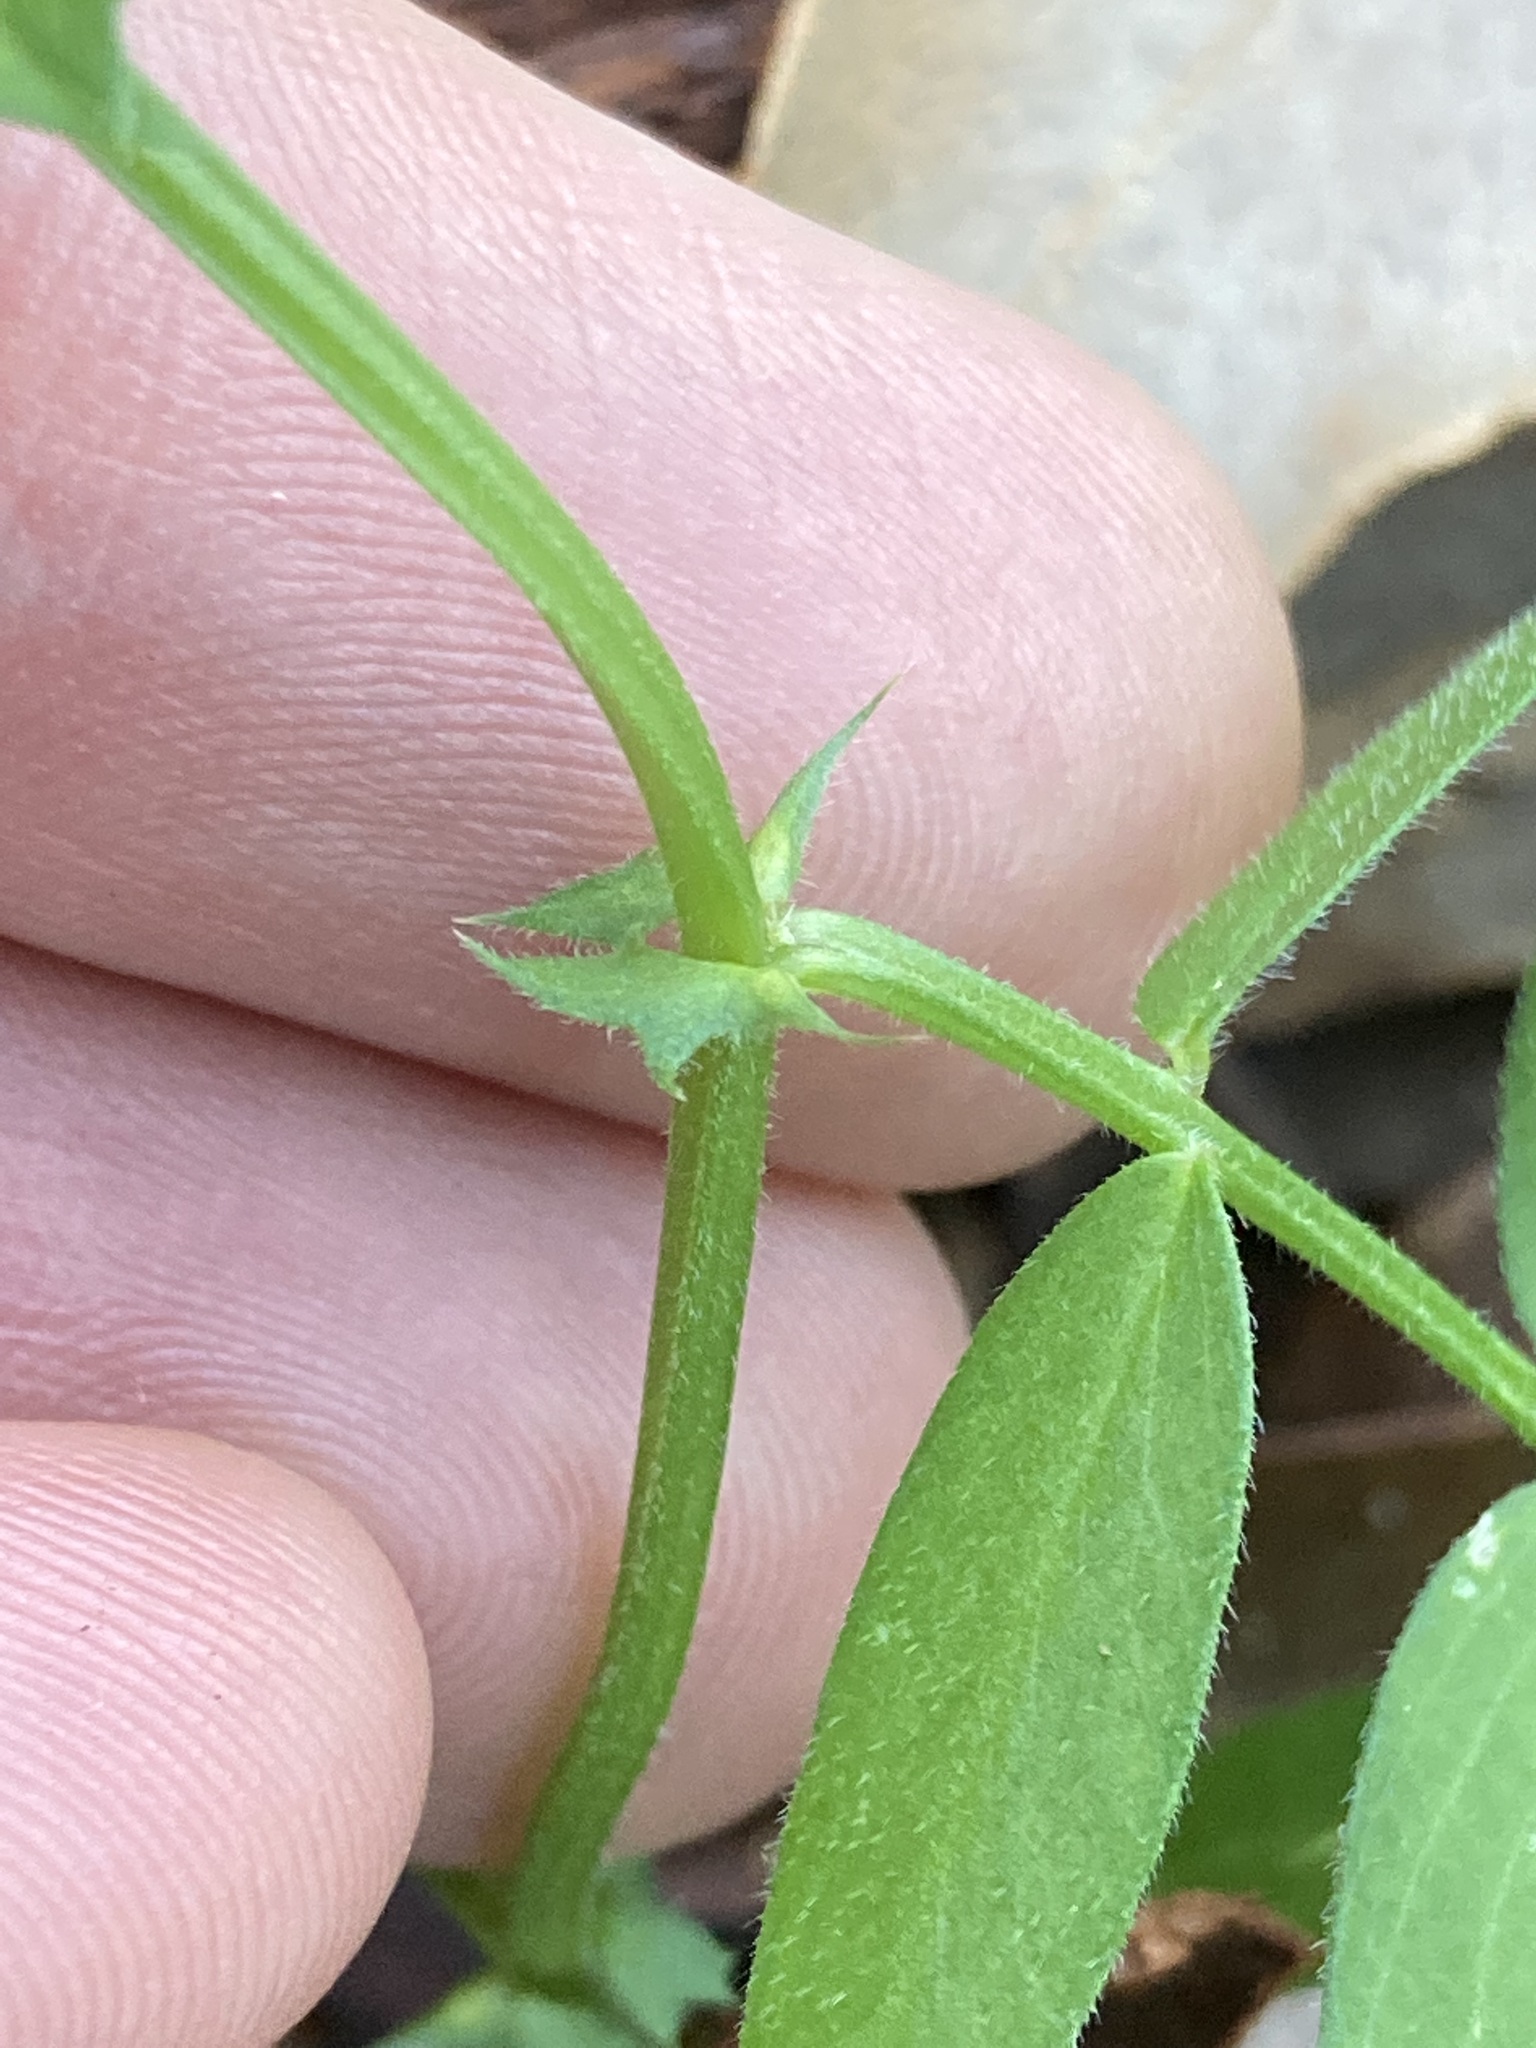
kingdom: Plantae
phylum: Tracheophyta
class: Magnoliopsida
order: Fabales
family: Fabaceae
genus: Vicia
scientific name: Vicia sativa
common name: Garden vetch
